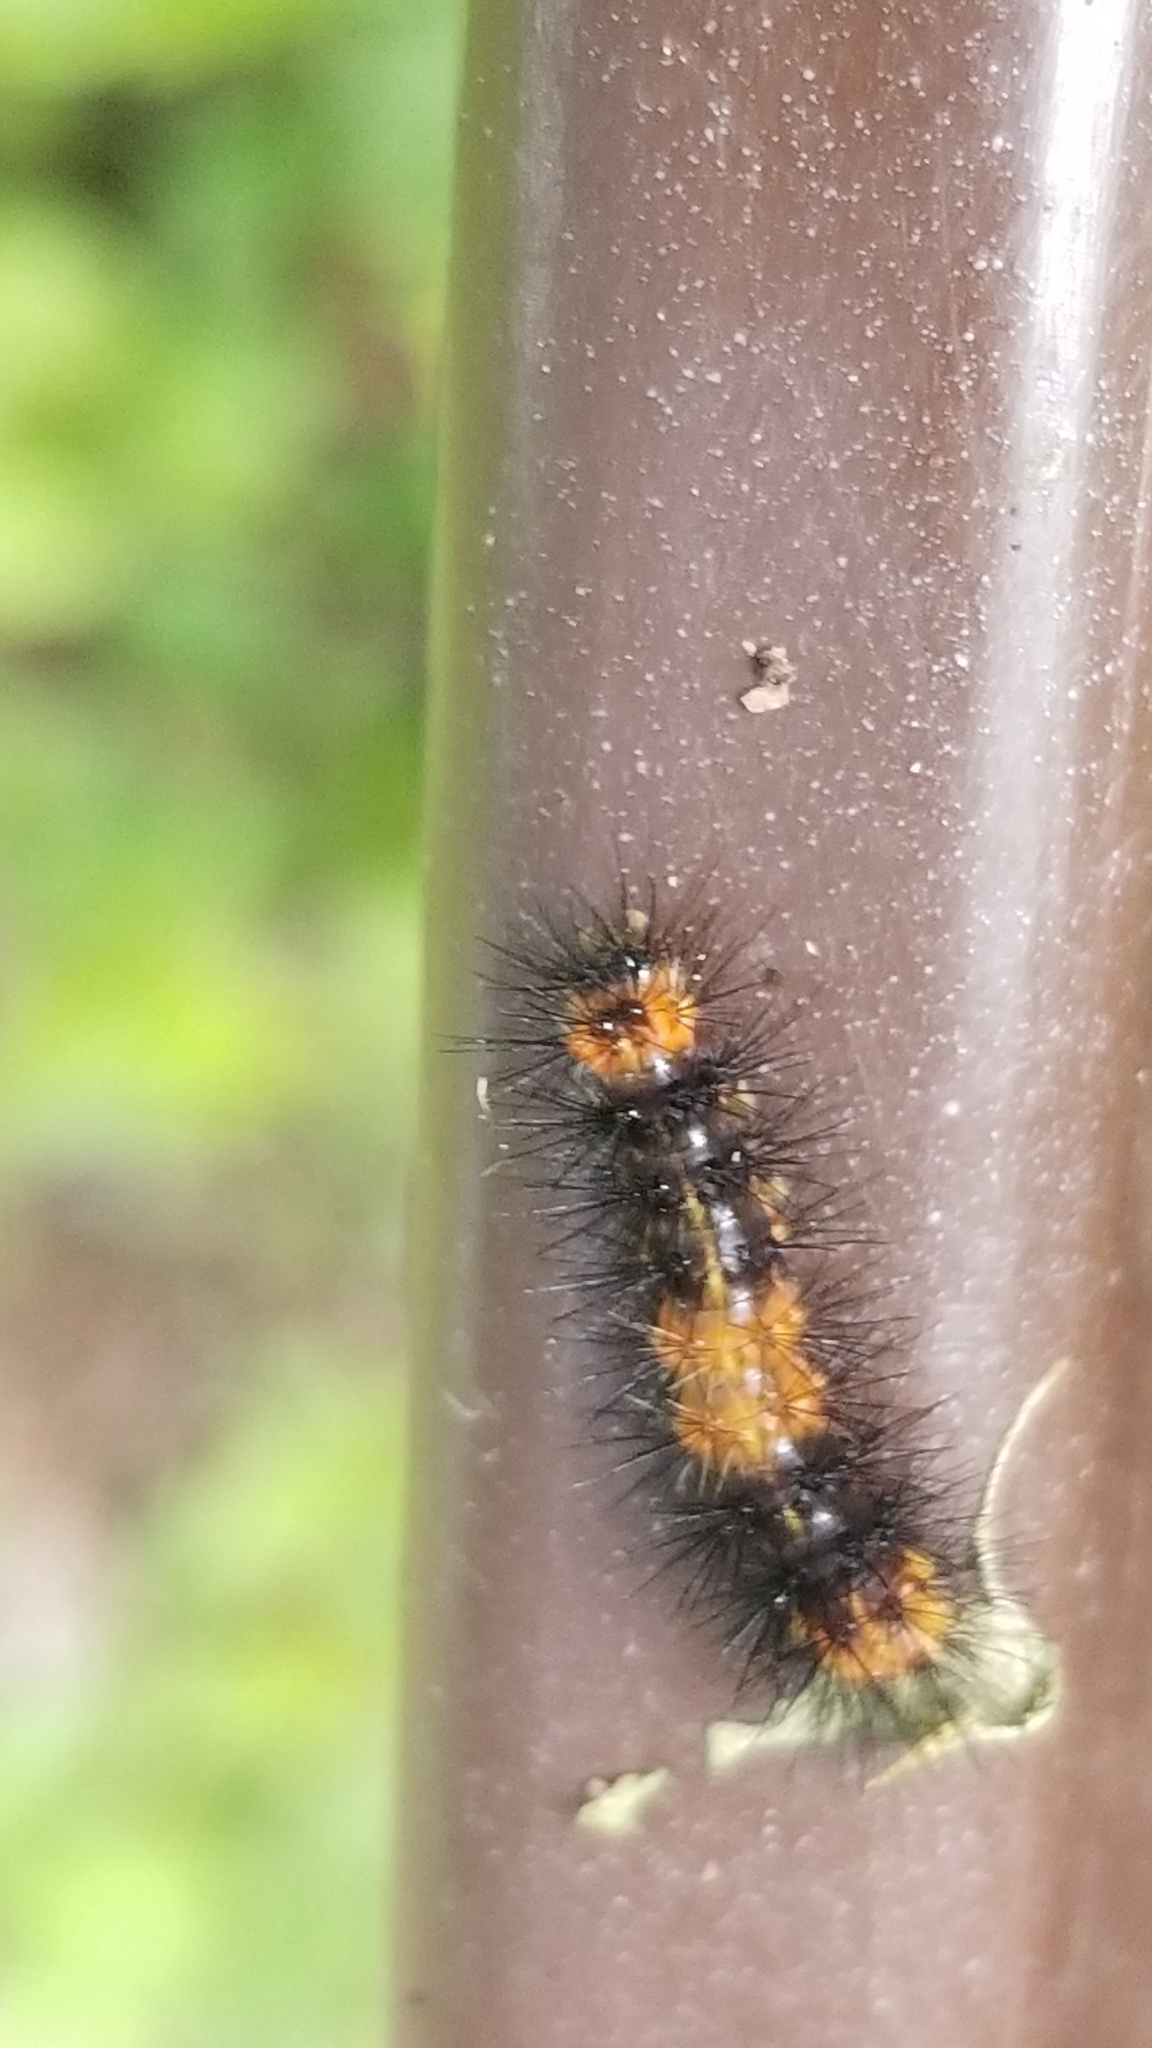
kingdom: Animalia
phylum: Arthropoda
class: Insecta
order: Lepidoptera
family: Erebidae
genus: Hypercompe
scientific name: Hypercompe scribonia
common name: Giant leopard moth
